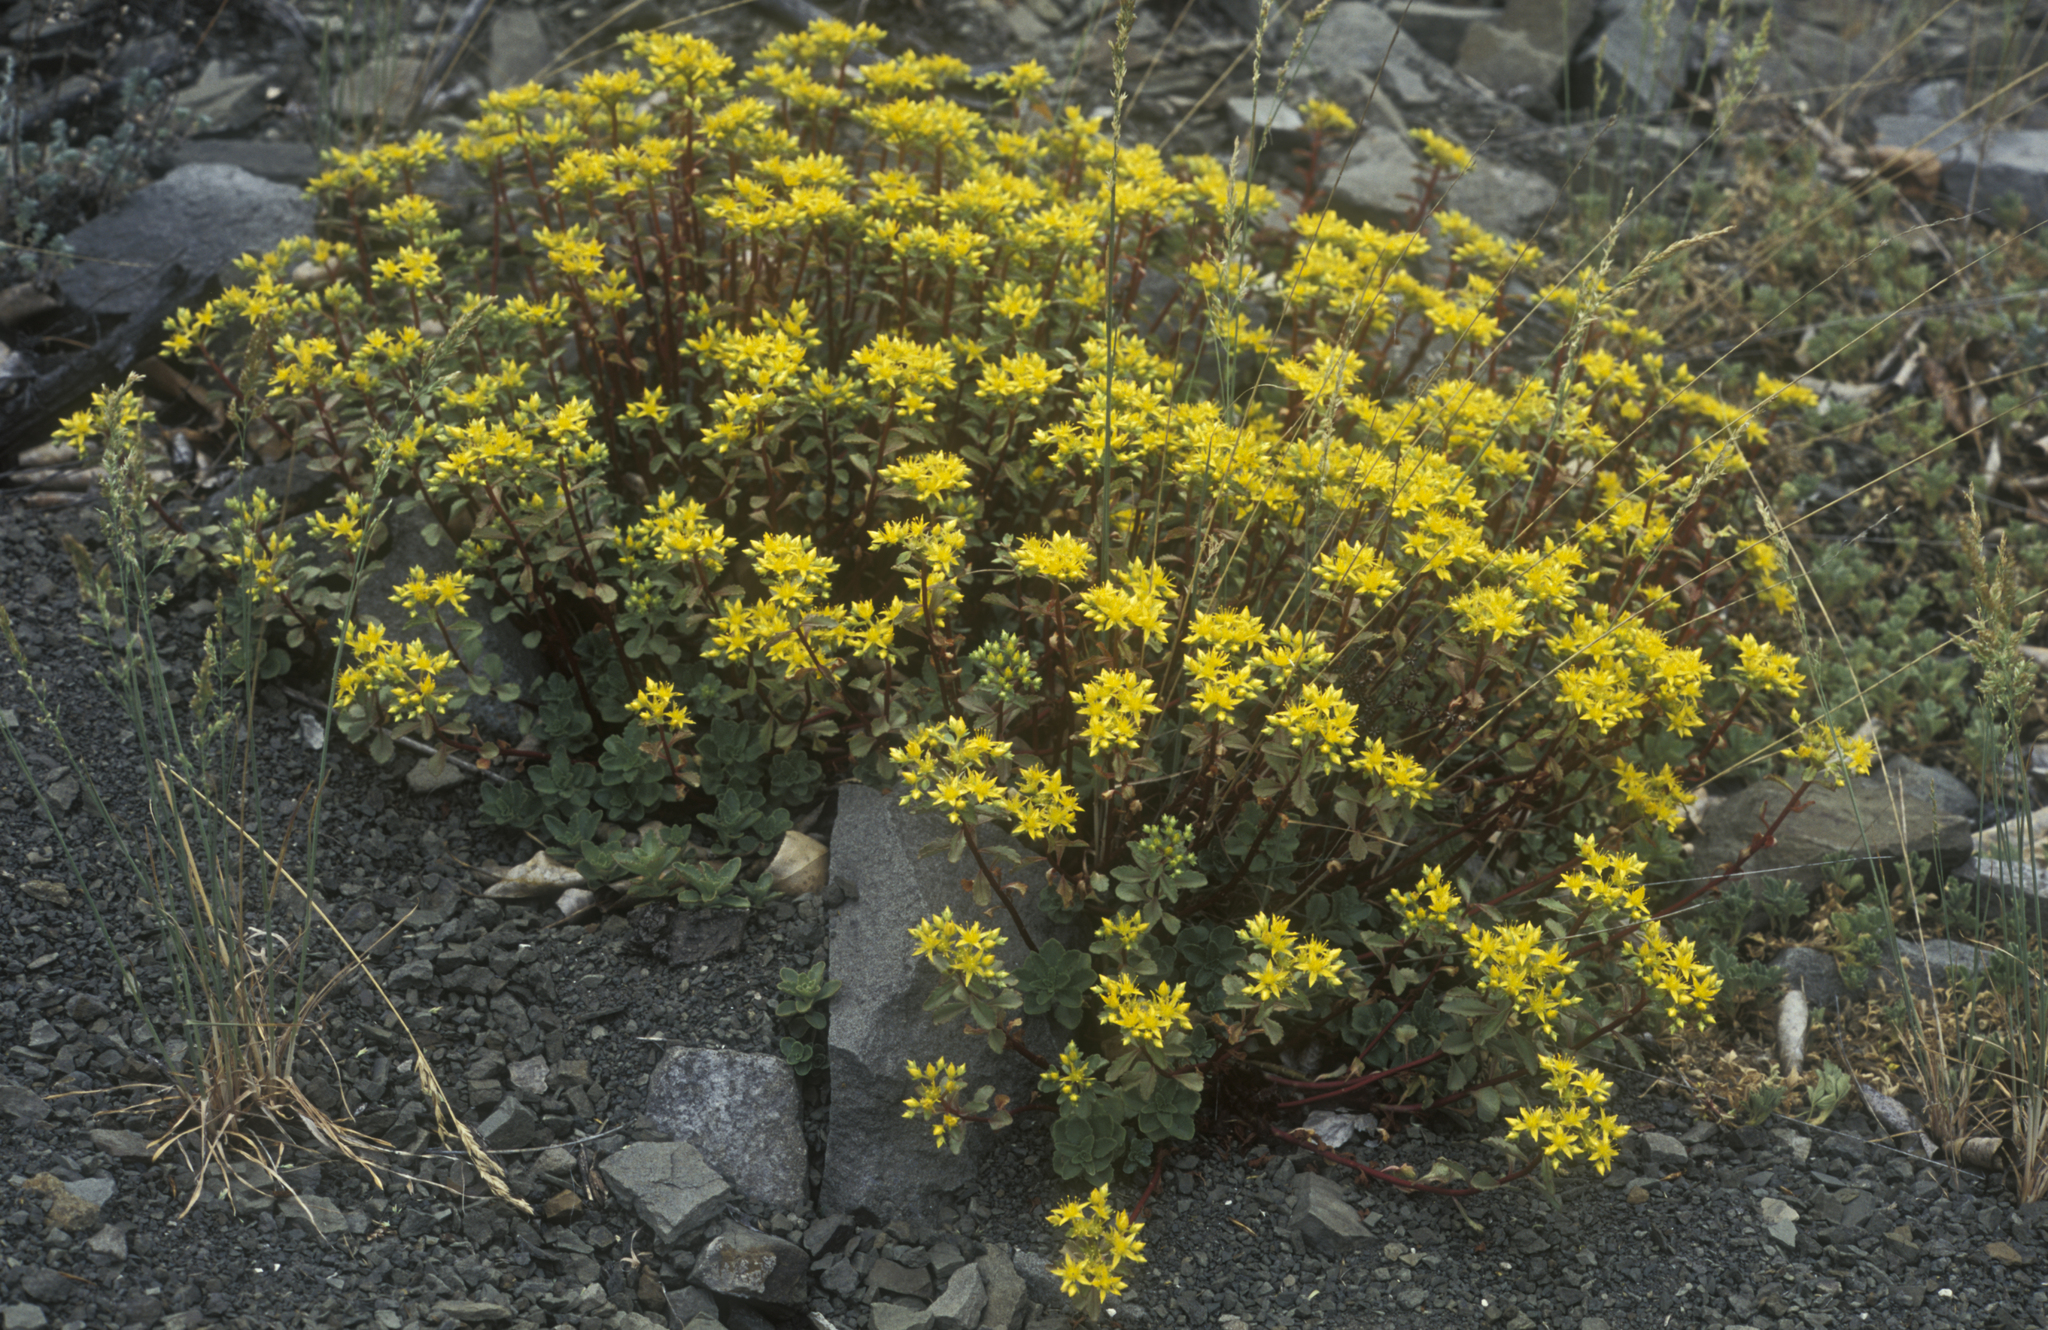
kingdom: Plantae
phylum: Tracheophyta
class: Magnoliopsida
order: Saxifragales
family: Crassulaceae
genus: Phedimus
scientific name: Phedimus hybridus
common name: Hybrid stonecrop
